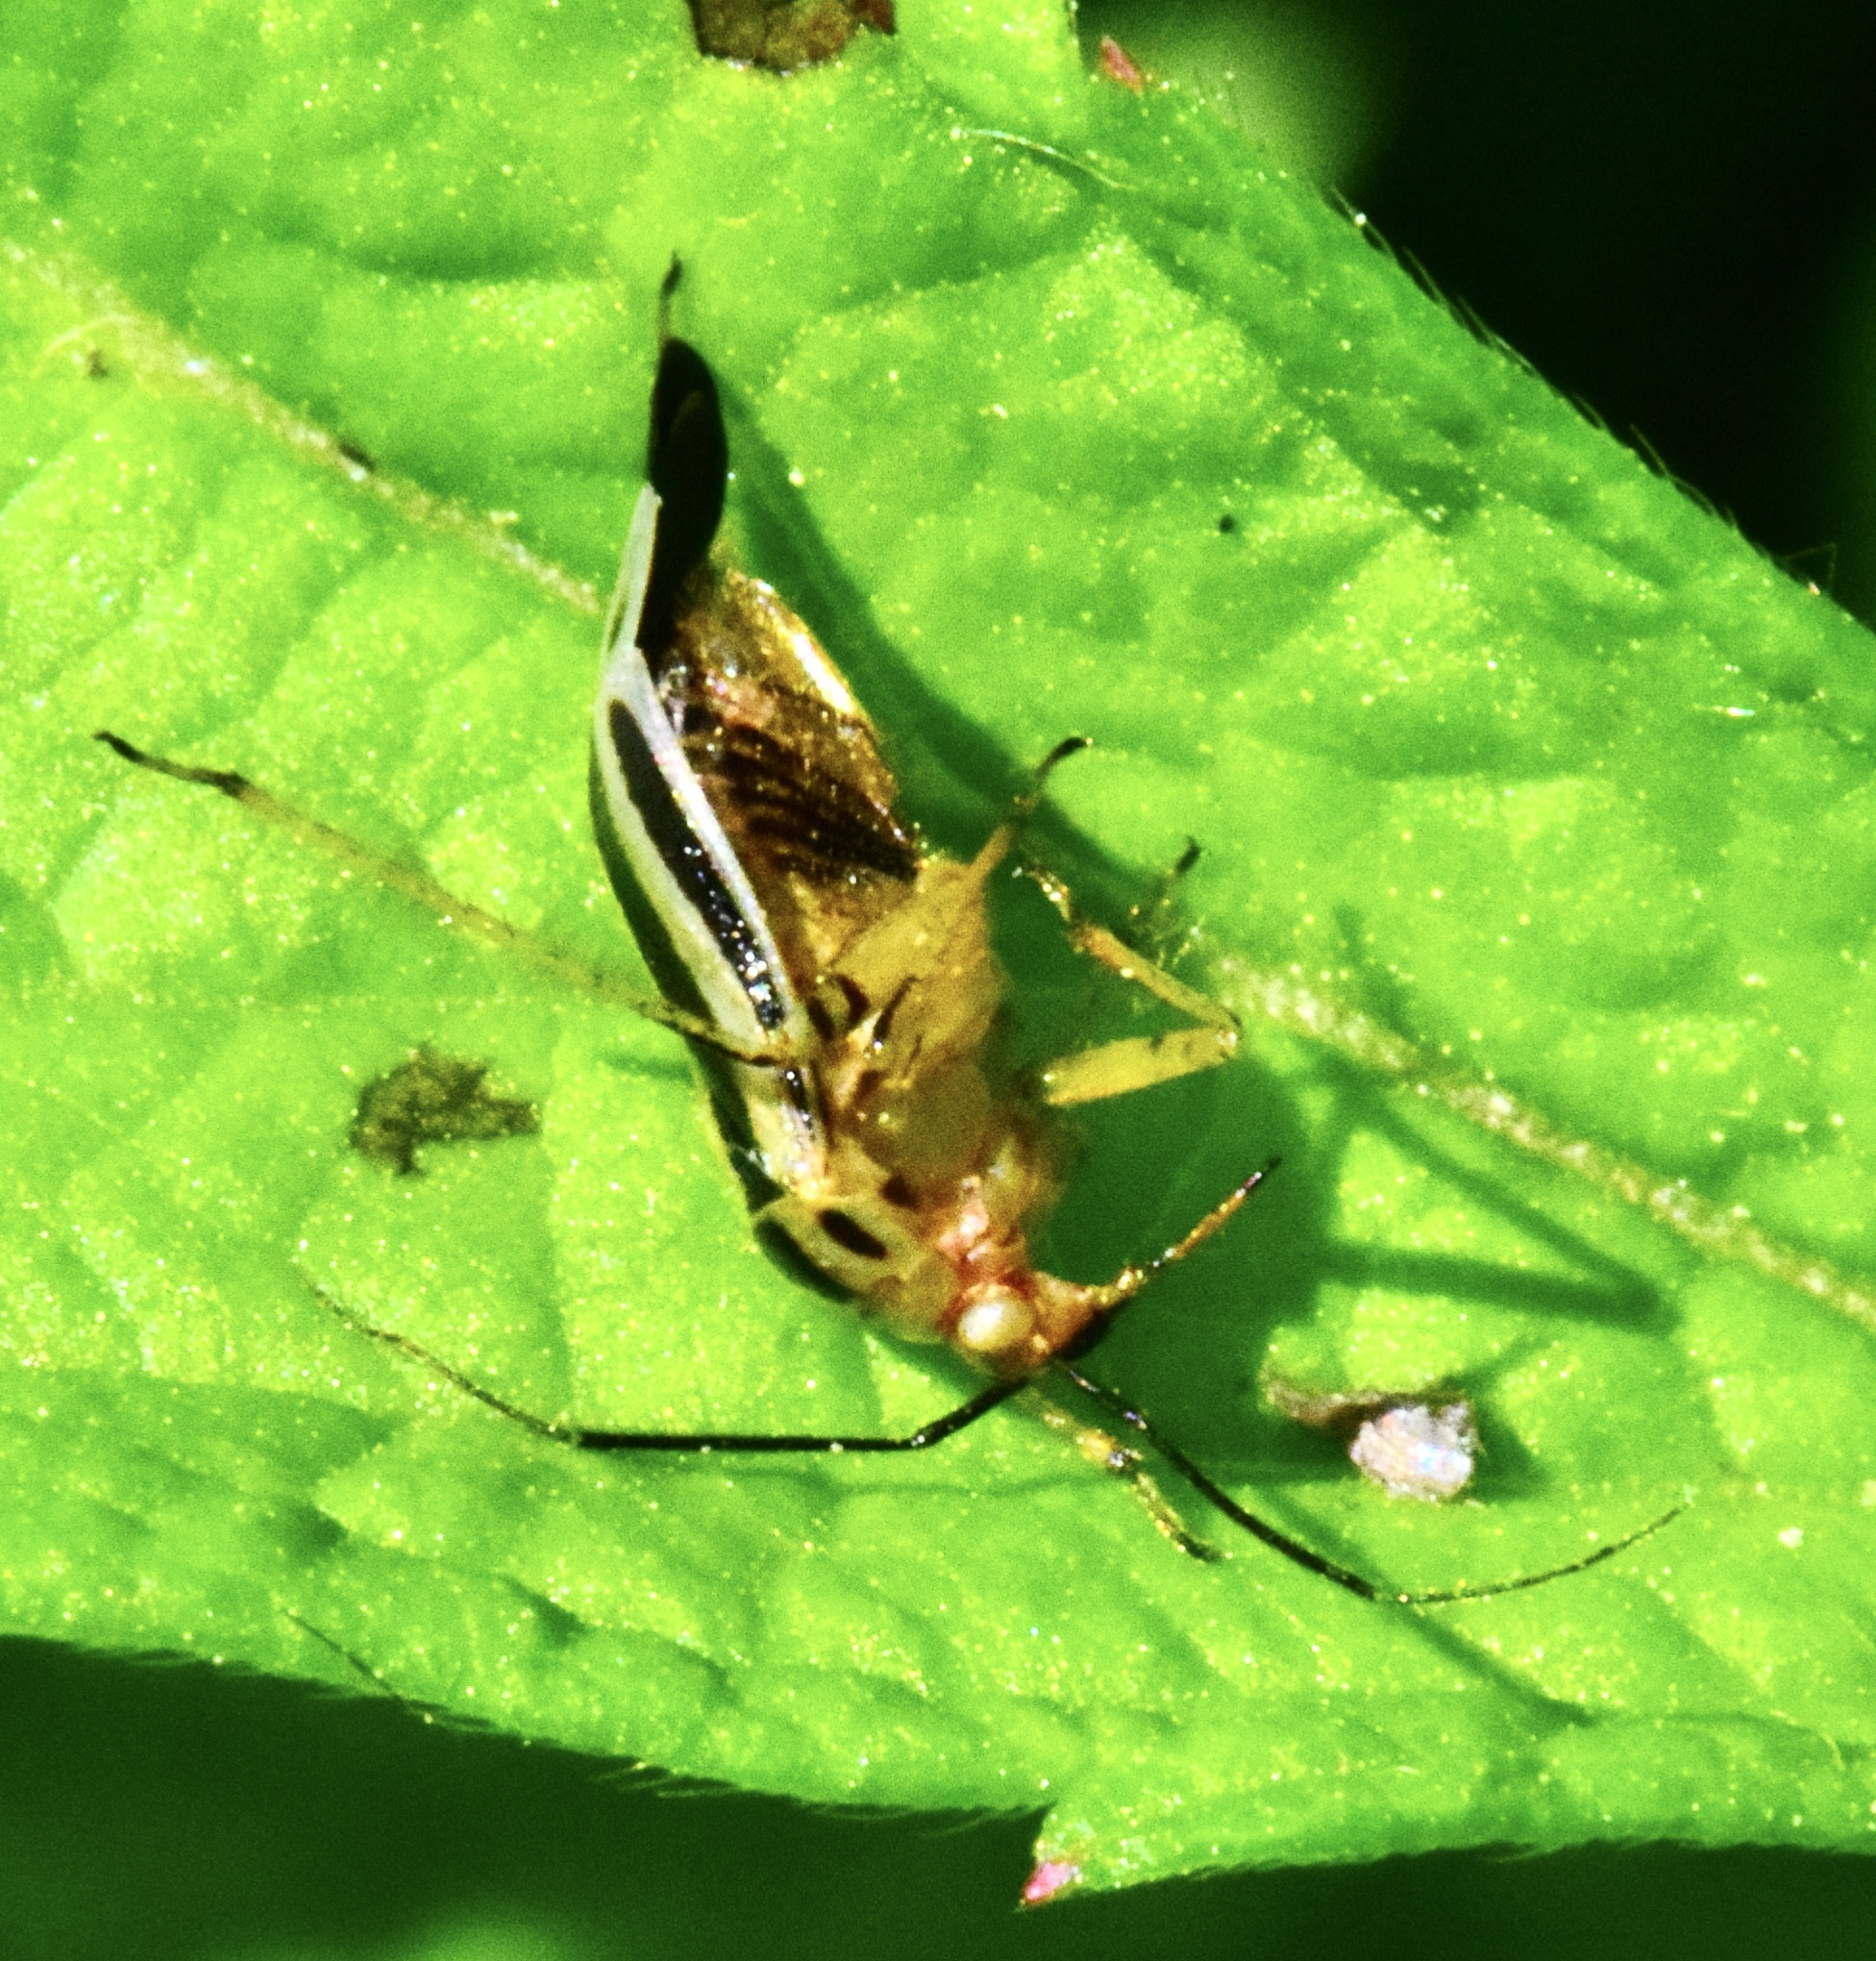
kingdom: Animalia
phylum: Arthropoda
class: Insecta
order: Hemiptera
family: Miridae
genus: Poecilocapsus
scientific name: Poecilocapsus lineatus
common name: Four-lined plant bug
